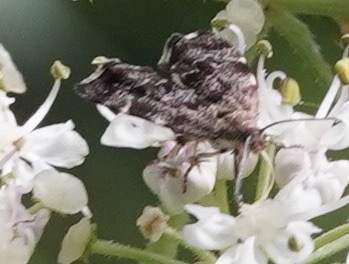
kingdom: Animalia
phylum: Arthropoda
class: Insecta
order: Lepidoptera
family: Choreutidae
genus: Anthophila
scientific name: Anthophila fabriciana
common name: Nettle-tap
